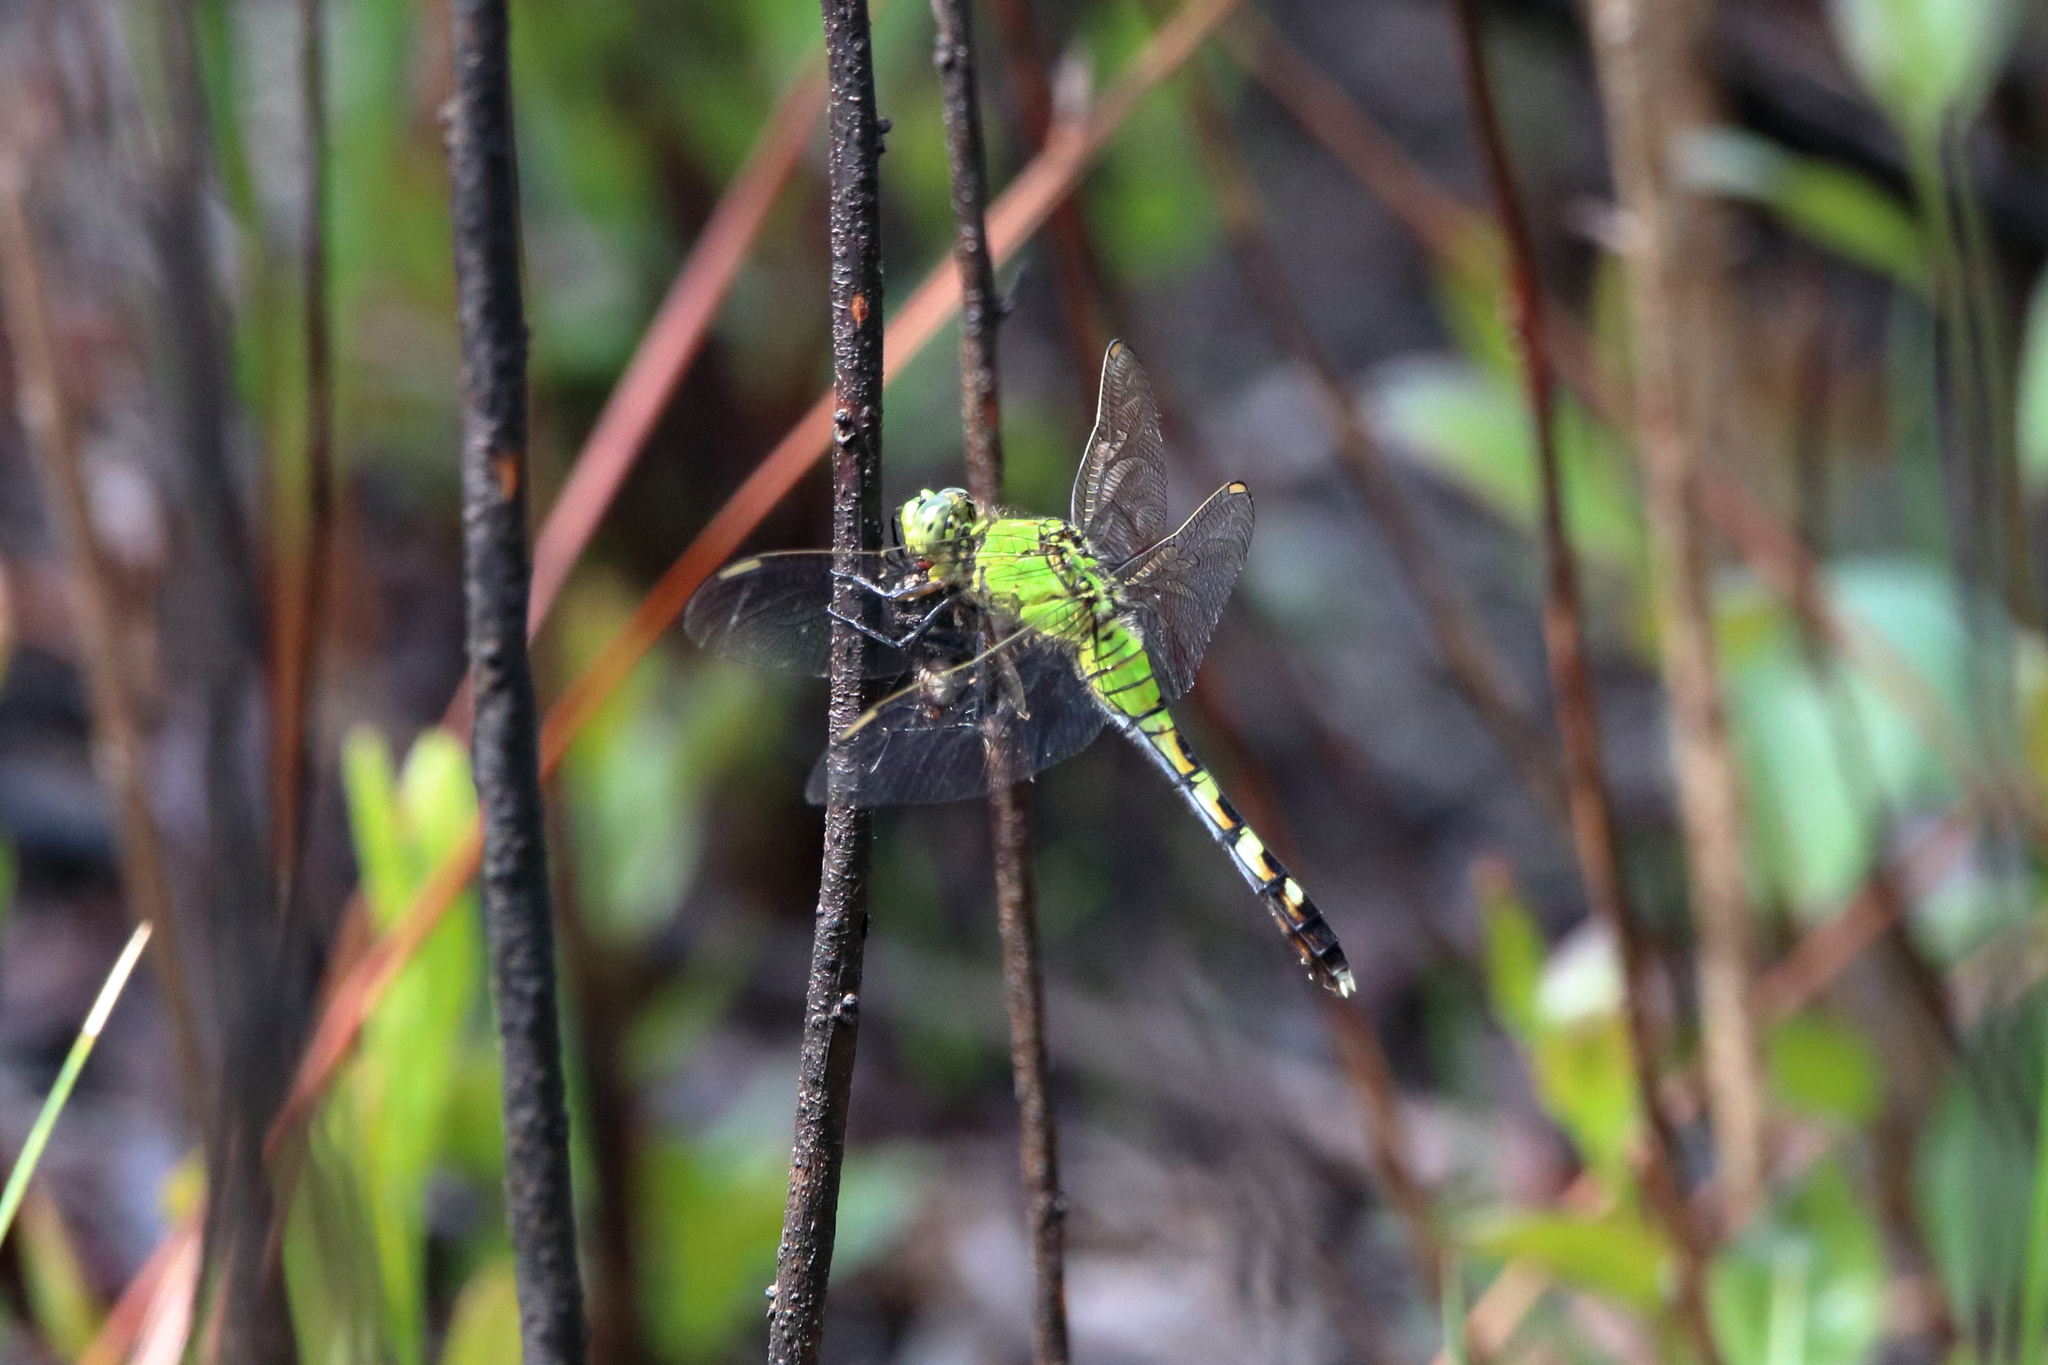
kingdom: Animalia
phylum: Arthropoda
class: Insecta
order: Odonata
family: Libellulidae
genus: Erythemis
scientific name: Erythemis simplicicollis
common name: Eastern pondhawk
